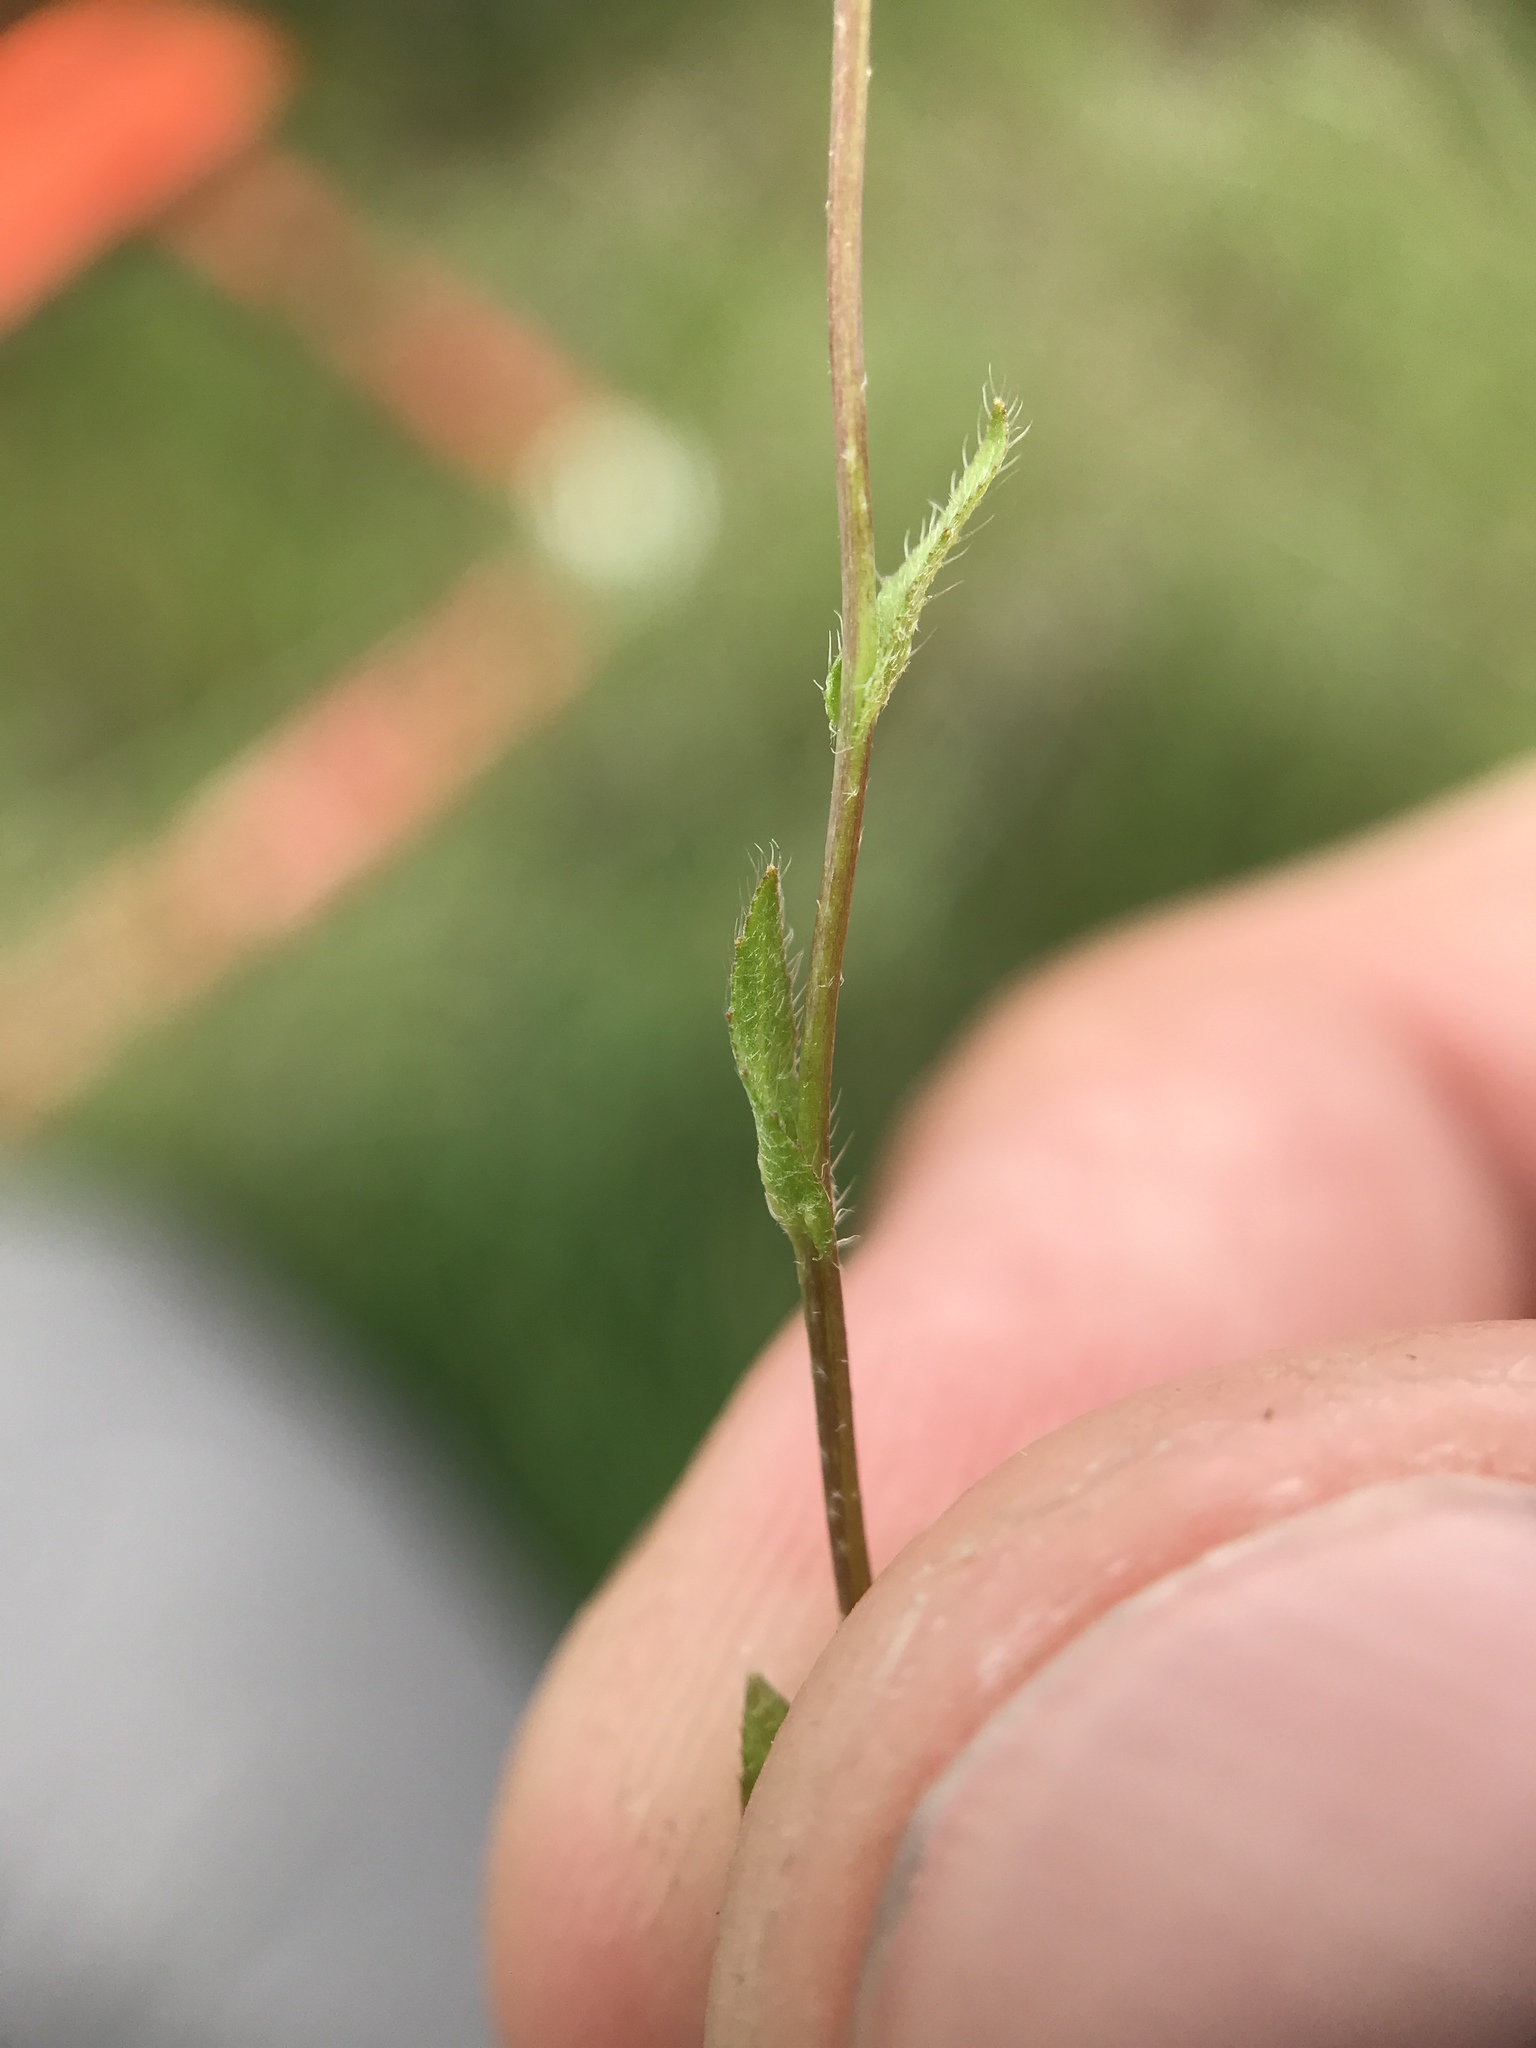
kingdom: Plantae
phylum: Tracheophyta
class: Magnoliopsida
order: Brassicales
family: Brassicaceae
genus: Capsella
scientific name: Capsella bursa-pastoris
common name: Shepherd's purse
